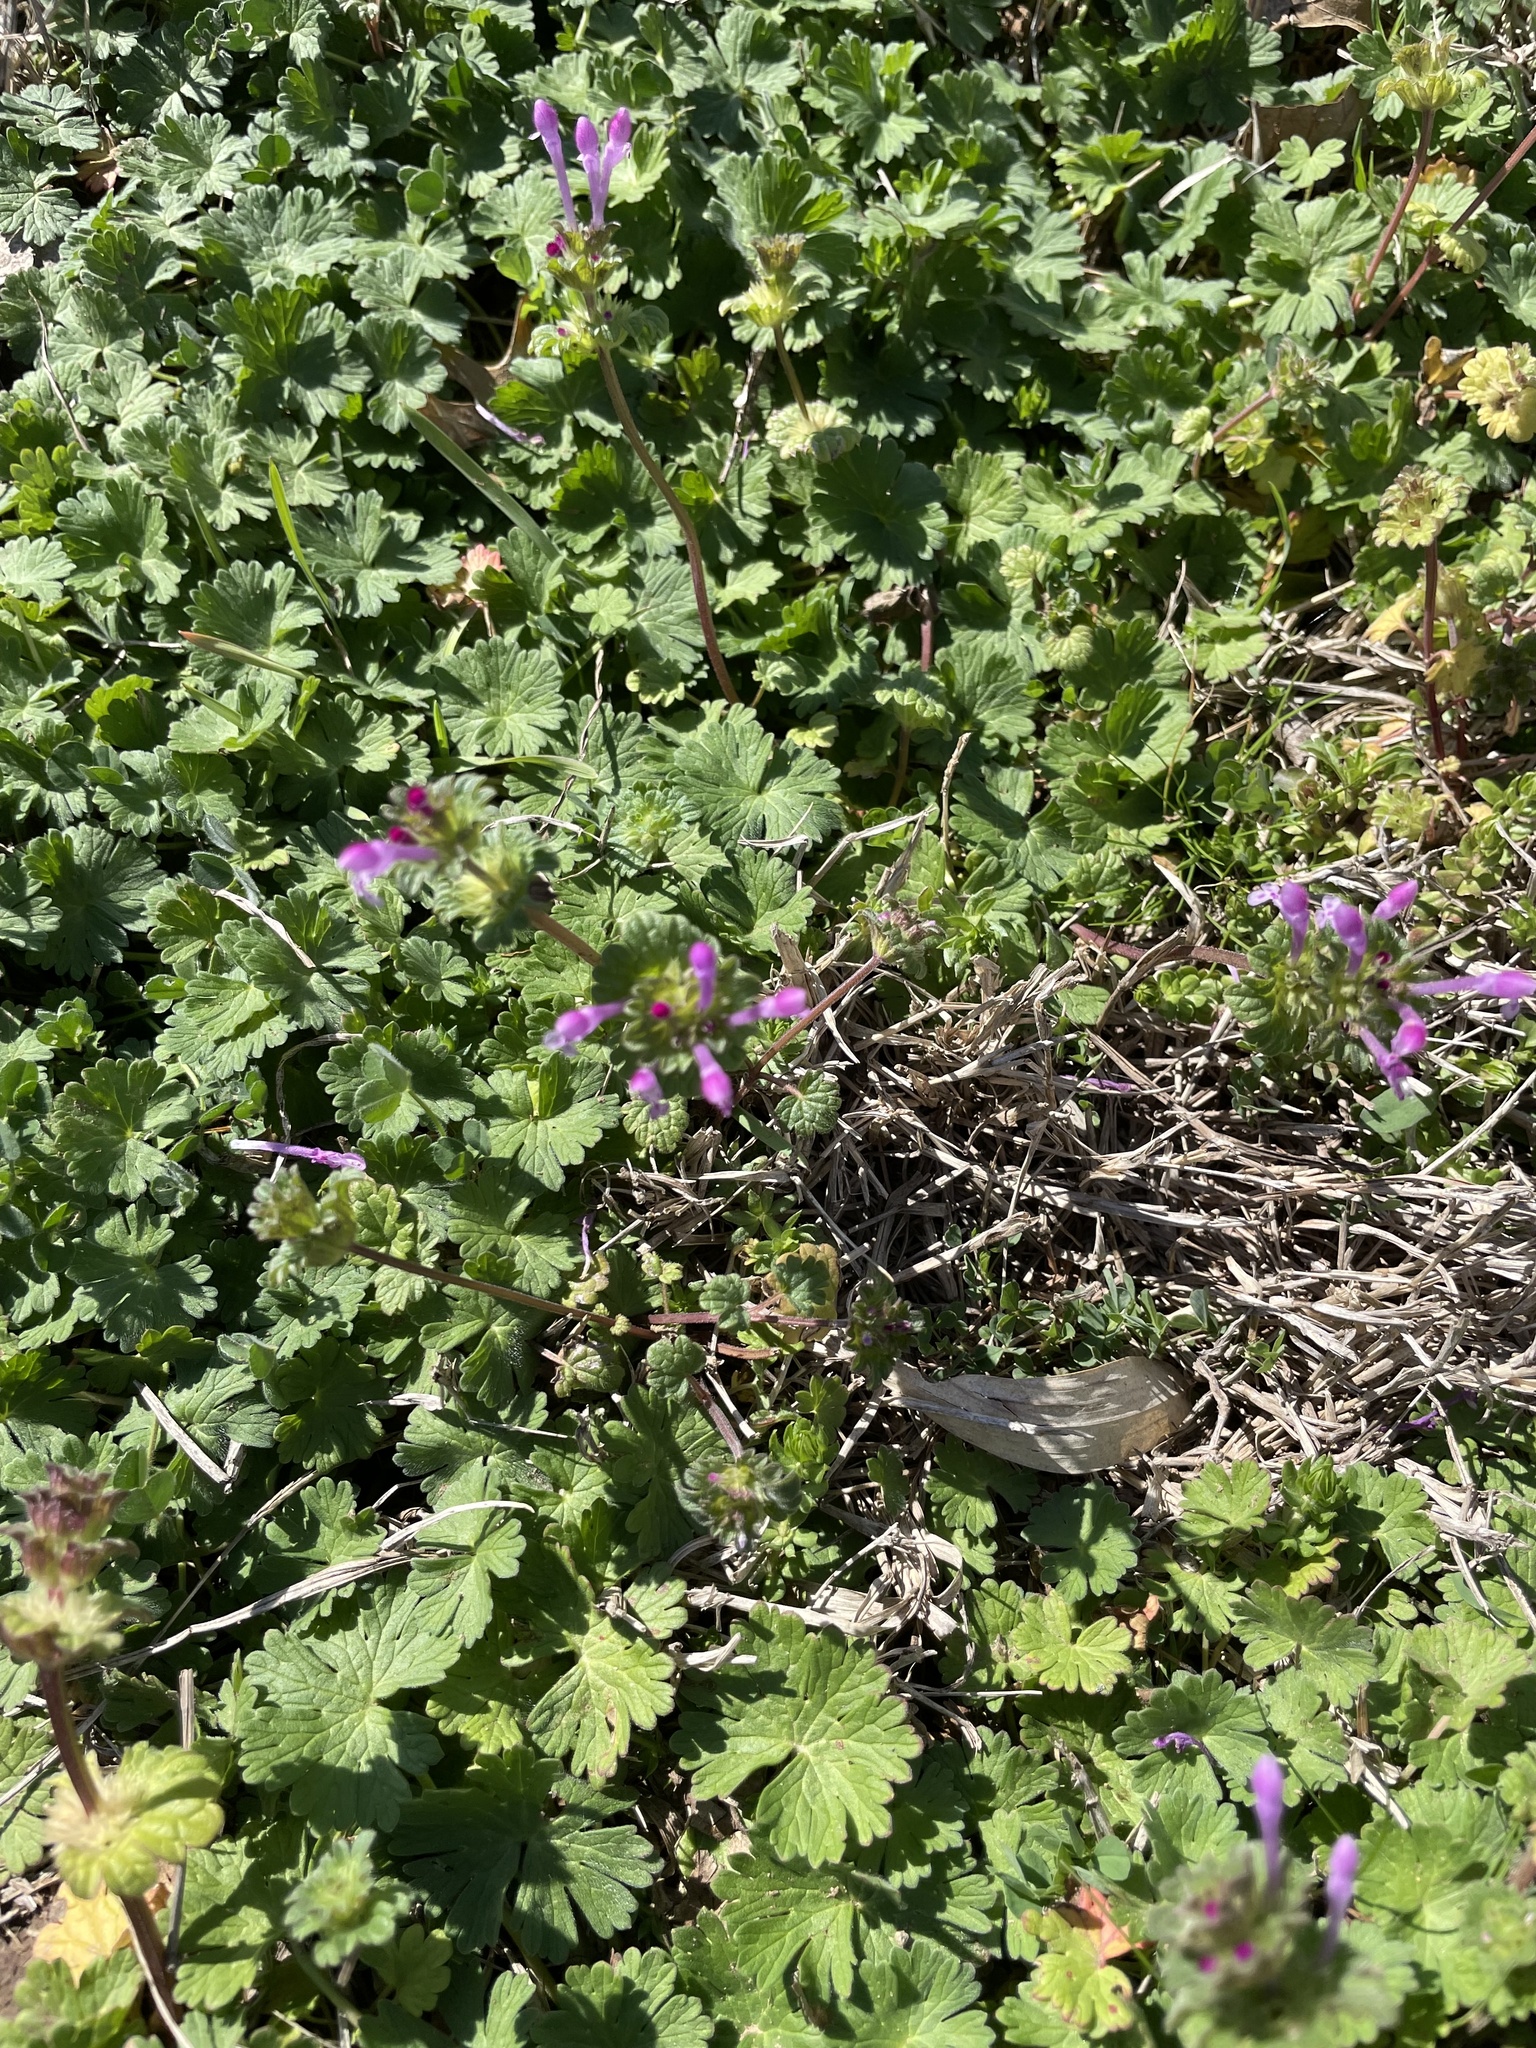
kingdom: Plantae
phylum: Tracheophyta
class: Magnoliopsida
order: Lamiales
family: Lamiaceae
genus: Lamium
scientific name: Lamium amplexicaule
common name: Henbit dead-nettle
